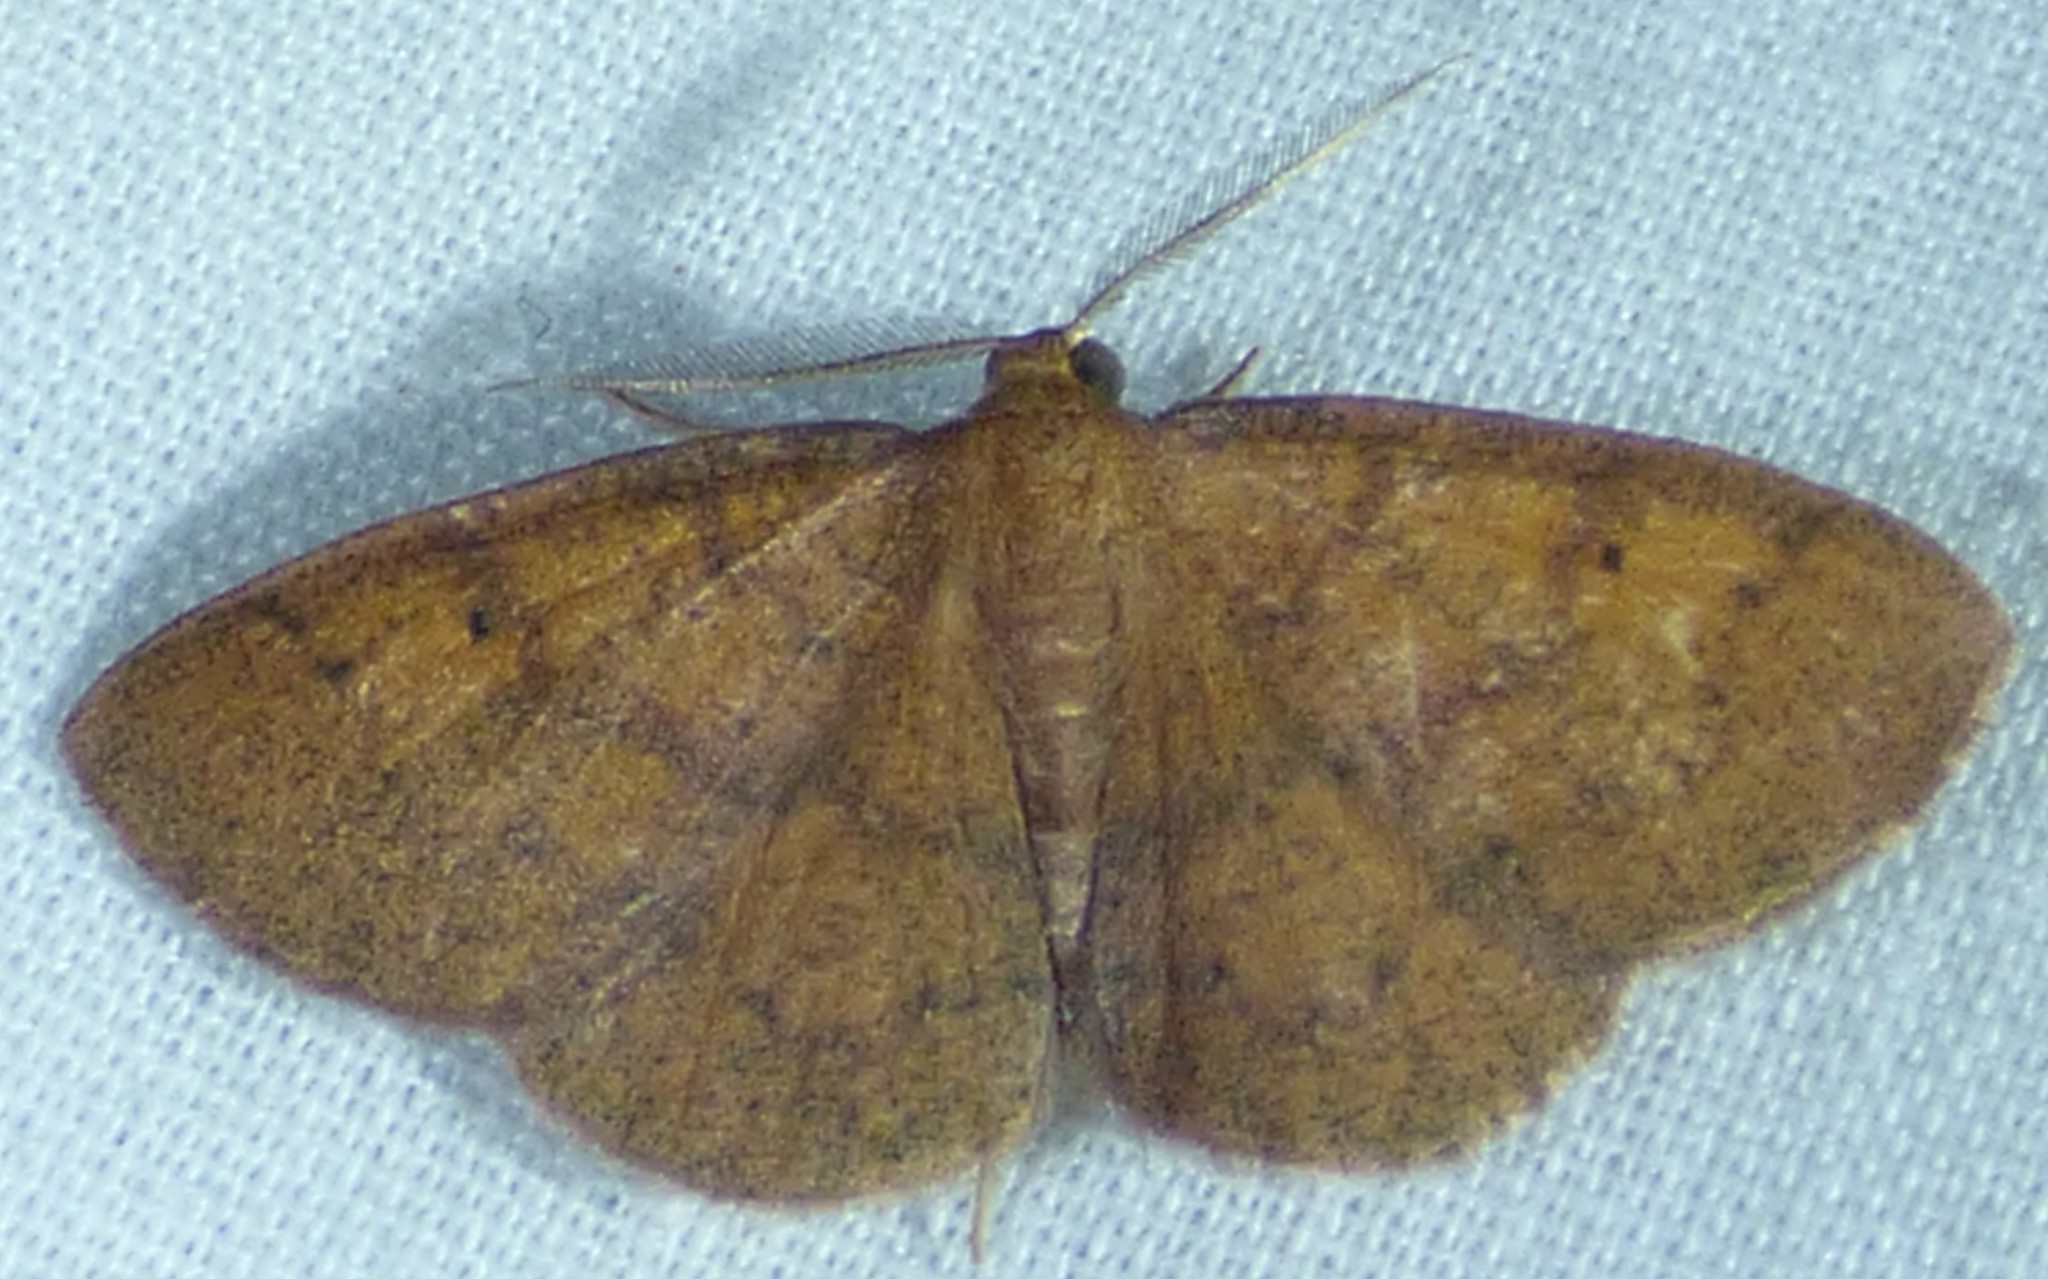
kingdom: Animalia
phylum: Arthropoda
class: Insecta
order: Lepidoptera
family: Geometridae
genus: Ilexia
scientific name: Ilexia intractata
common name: Black-dotted ruddy moth
